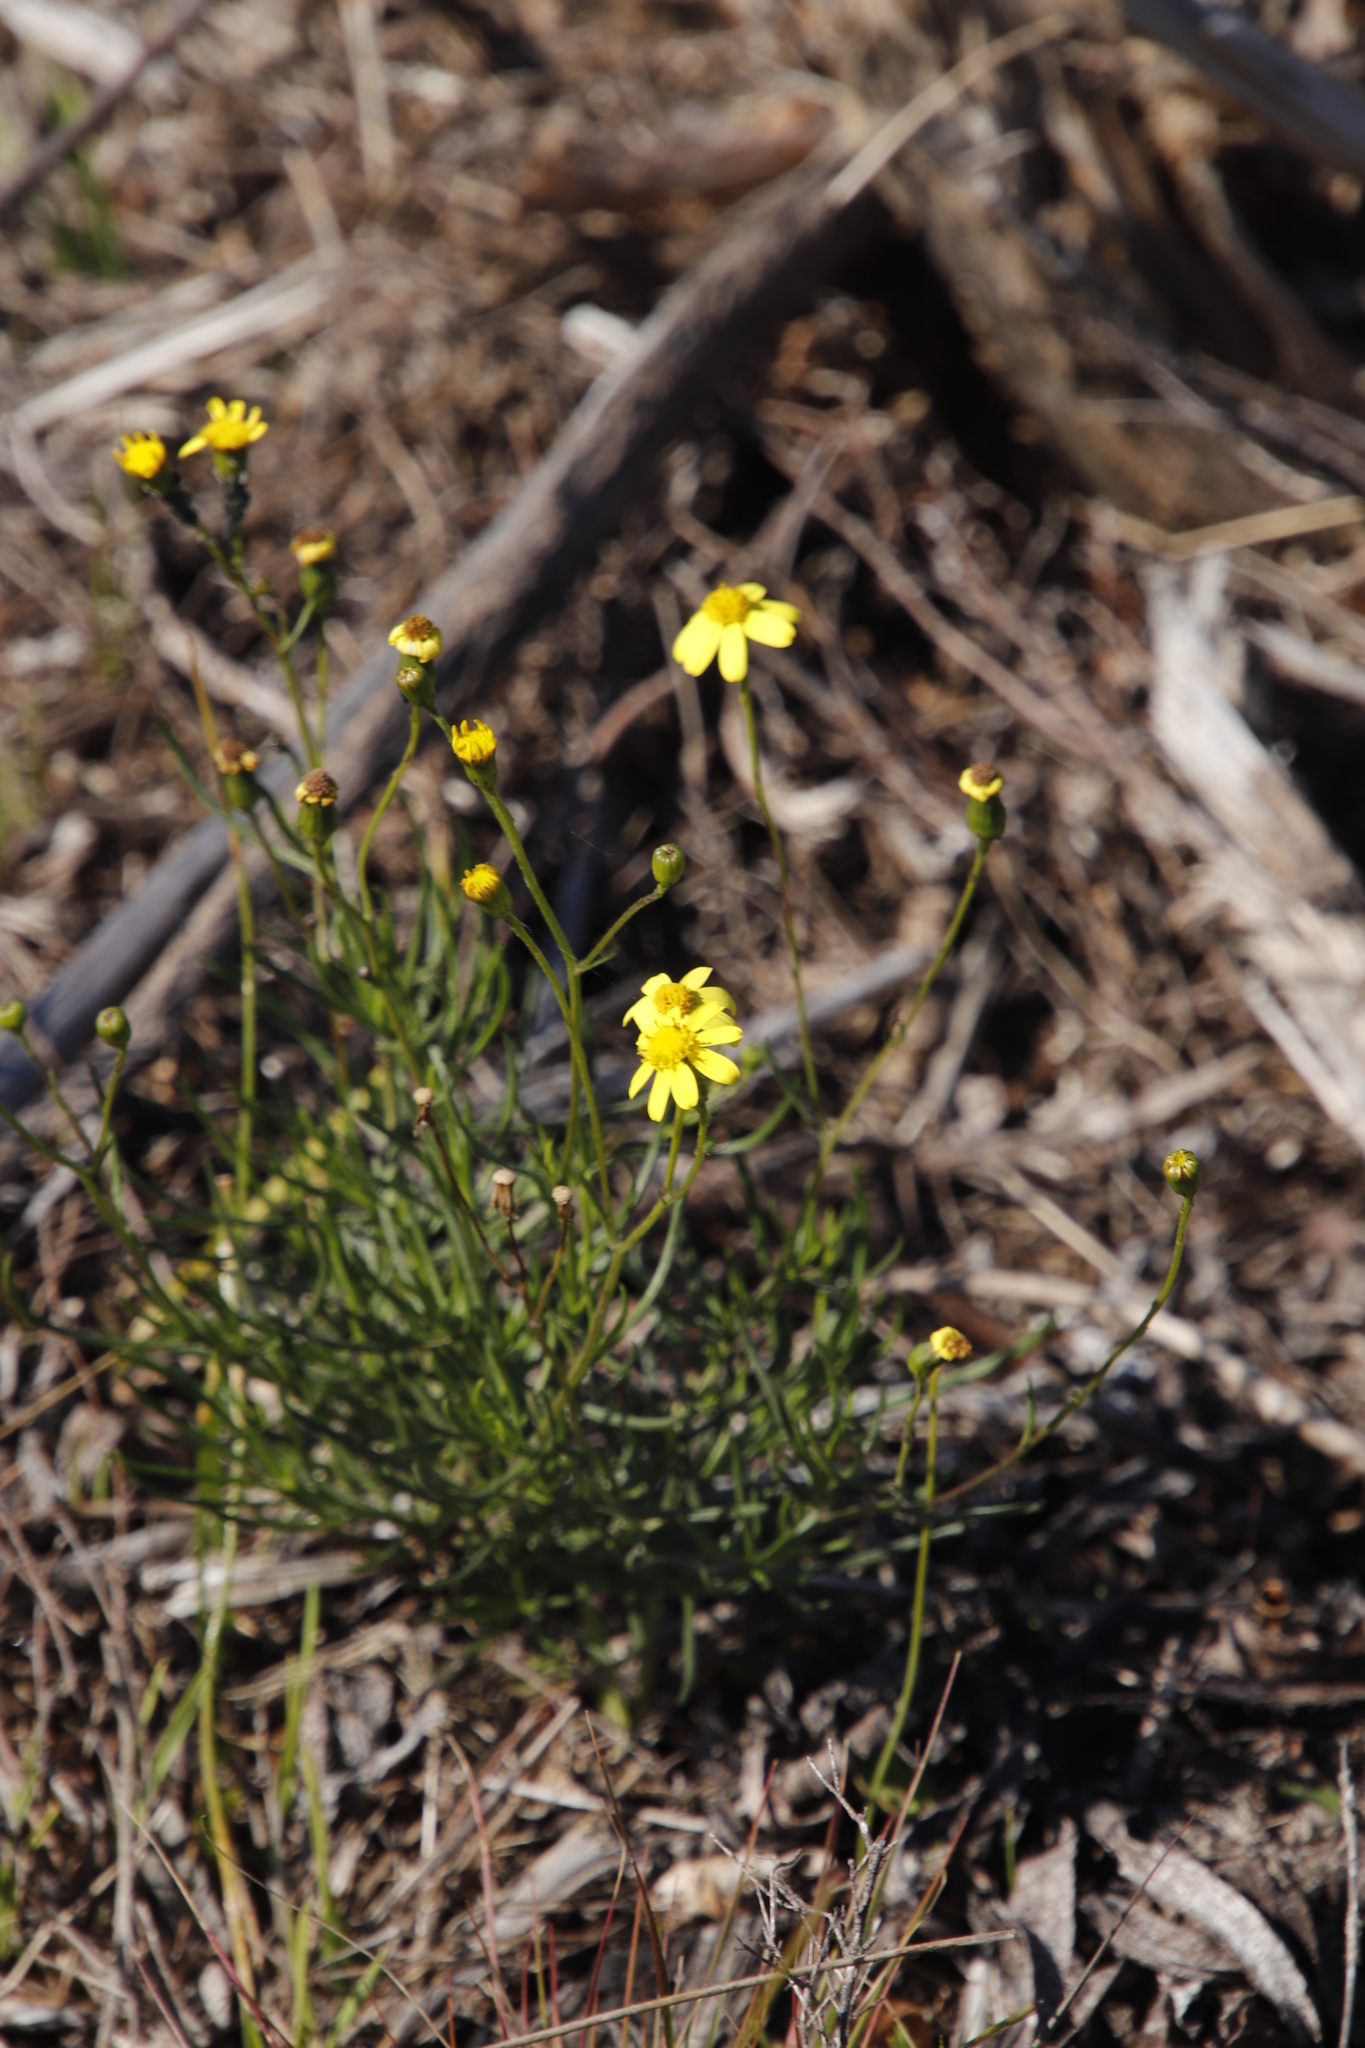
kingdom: Plantae
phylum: Tracheophyta
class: Magnoliopsida
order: Asterales
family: Asteraceae
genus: Senecio
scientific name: Senecio burchellii
